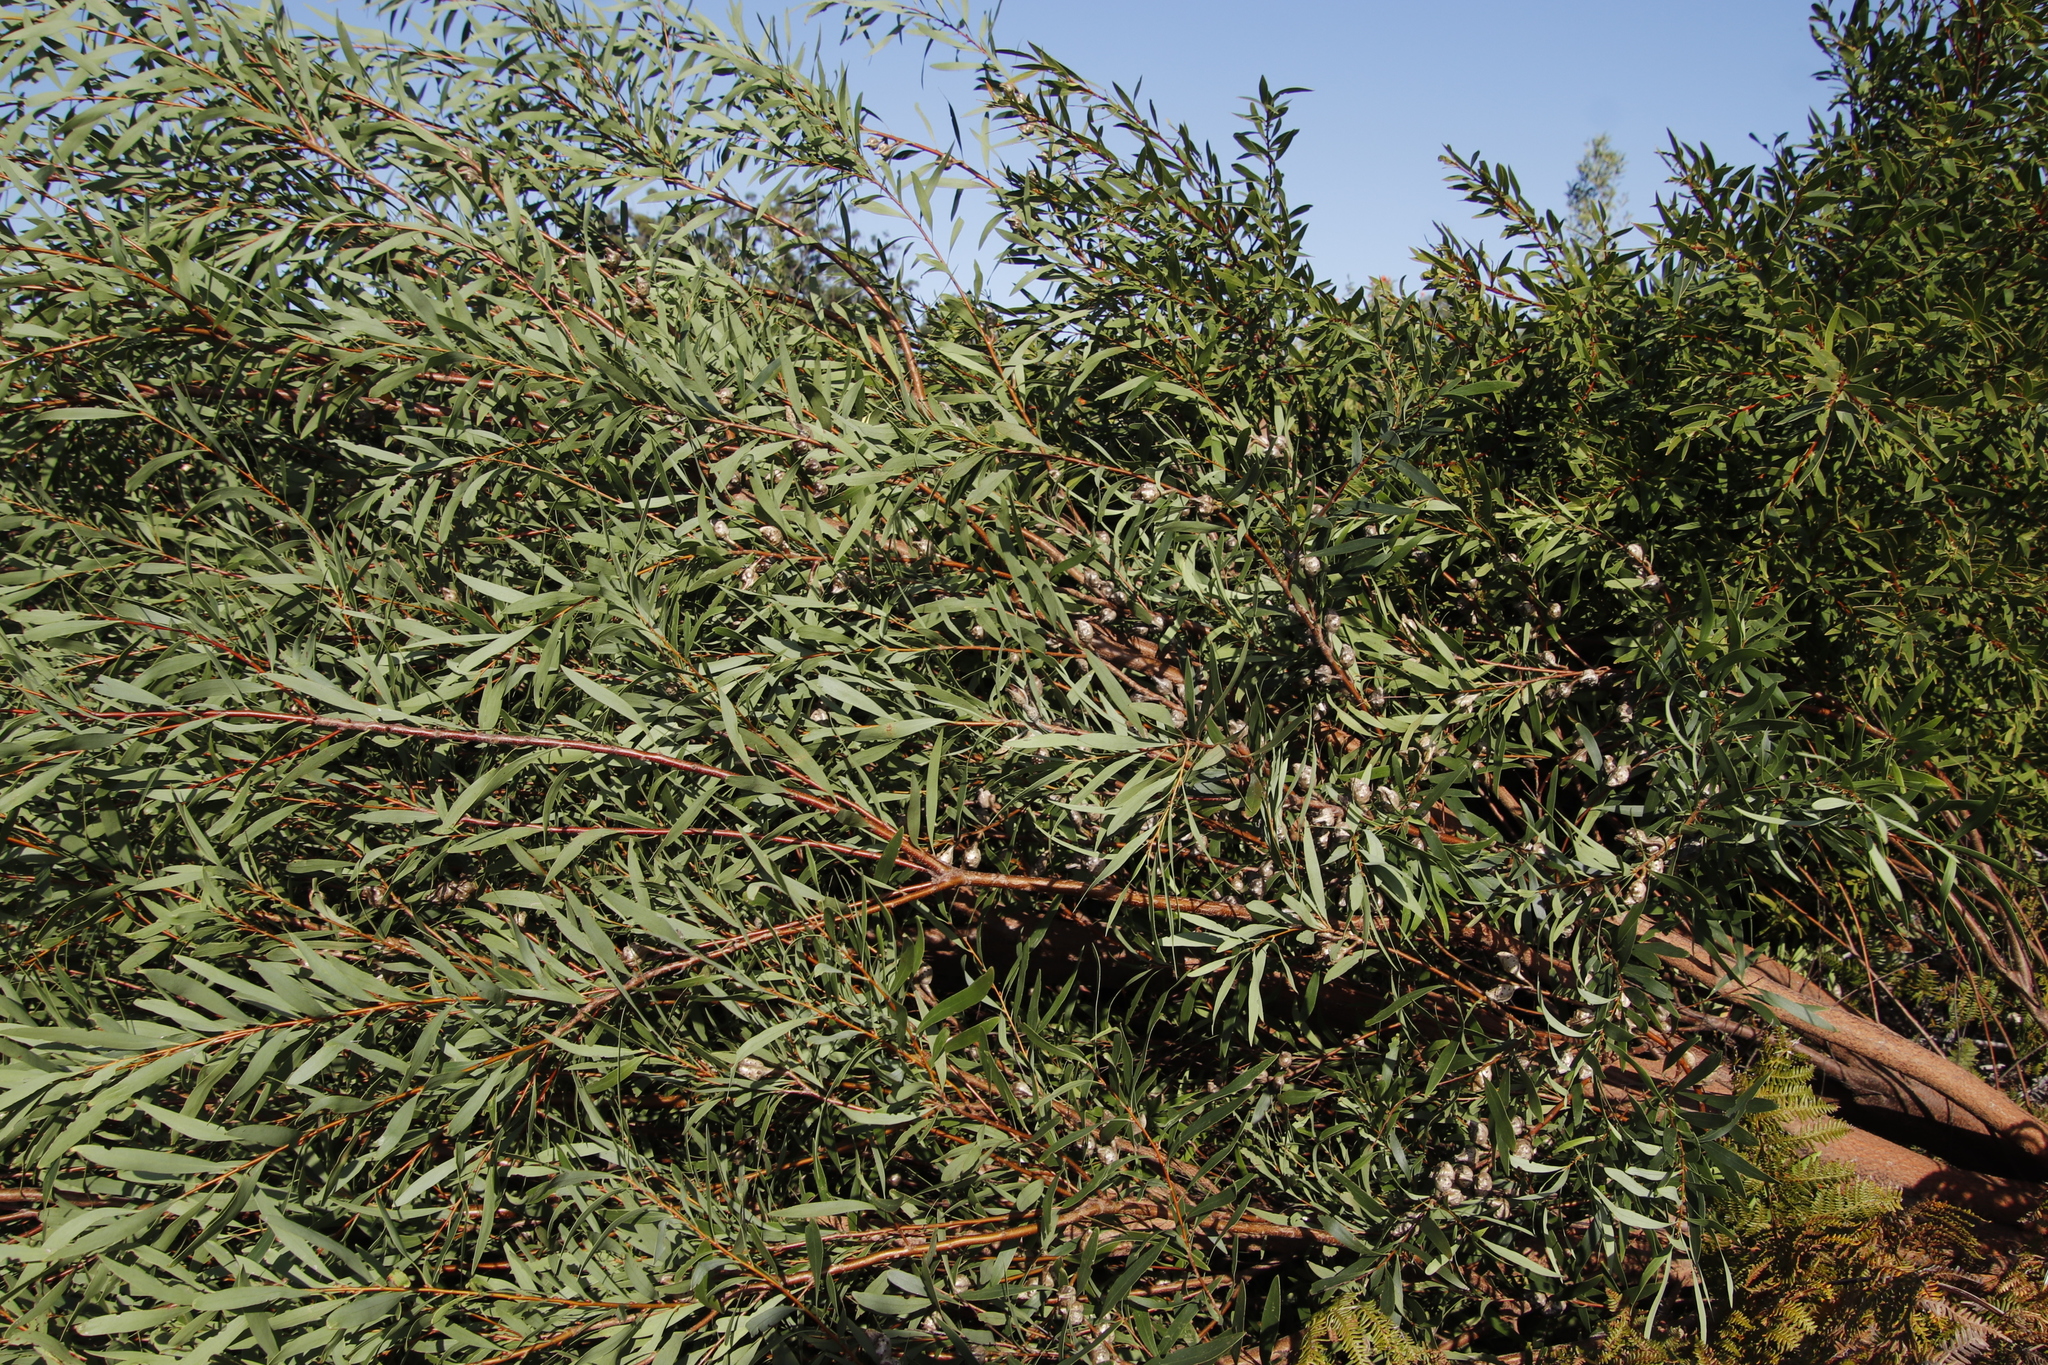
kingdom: Plantae
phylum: Tracheophyta
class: Magnoliopsida
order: Fabales
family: Fabaceae
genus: Acacia
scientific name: Acacia longifolia
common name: Sydney golden wattle
